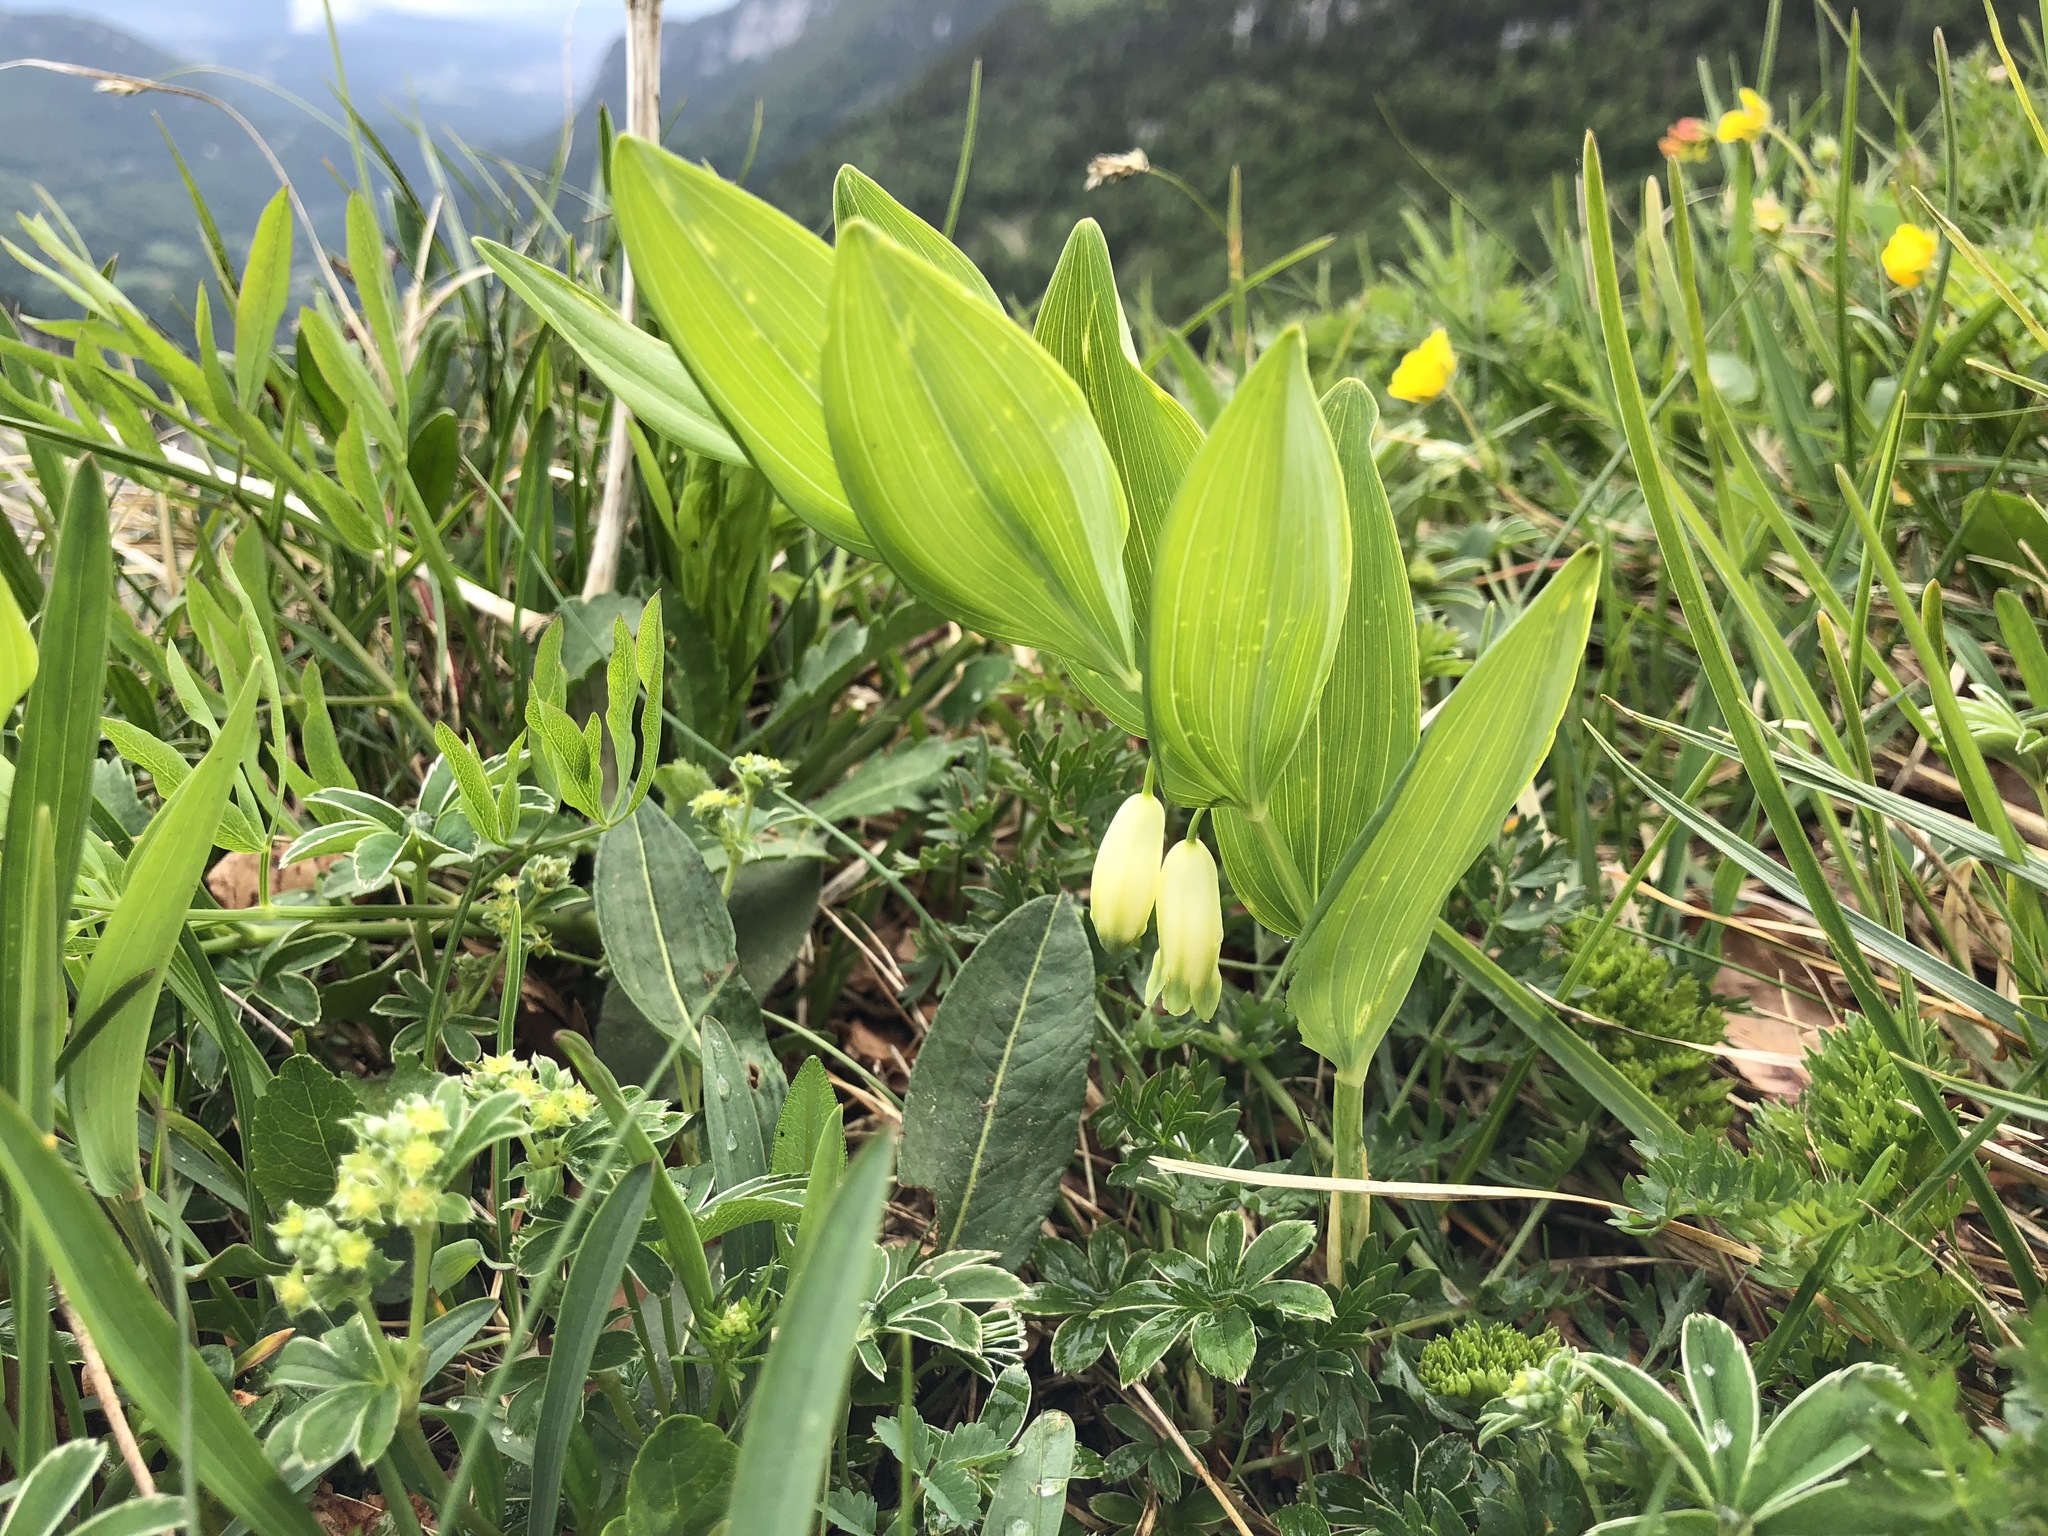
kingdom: Plantae
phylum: Tracheophyta
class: Liliopsida
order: Asparagales
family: Asparagaceae
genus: Polygonatum
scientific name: Polygonatum odoratum
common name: Angular solomon's-seal
